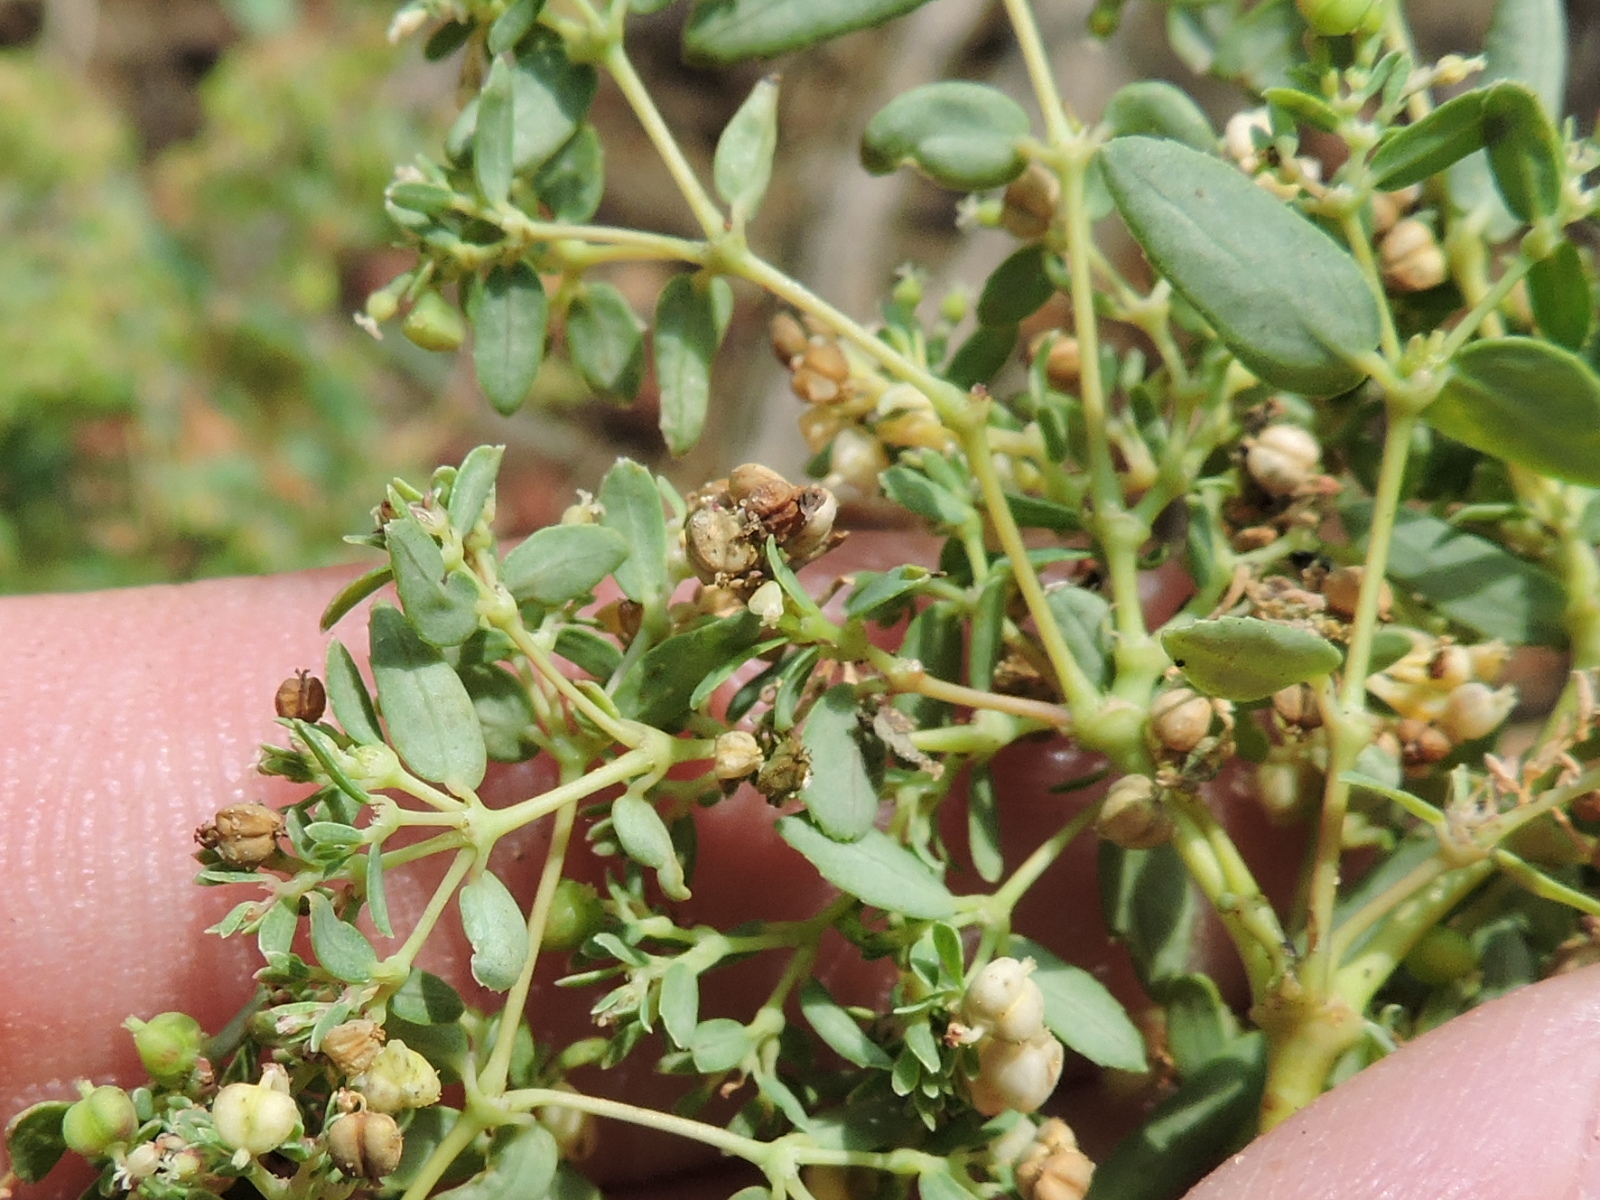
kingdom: Plantae
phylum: Tracheophyta
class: Magnoliopsida
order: Malpighiales
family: Euphorbiaceae
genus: Euphorbia
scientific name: Euphorbia hyssopifolia
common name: Hyssopleaf sandmat
